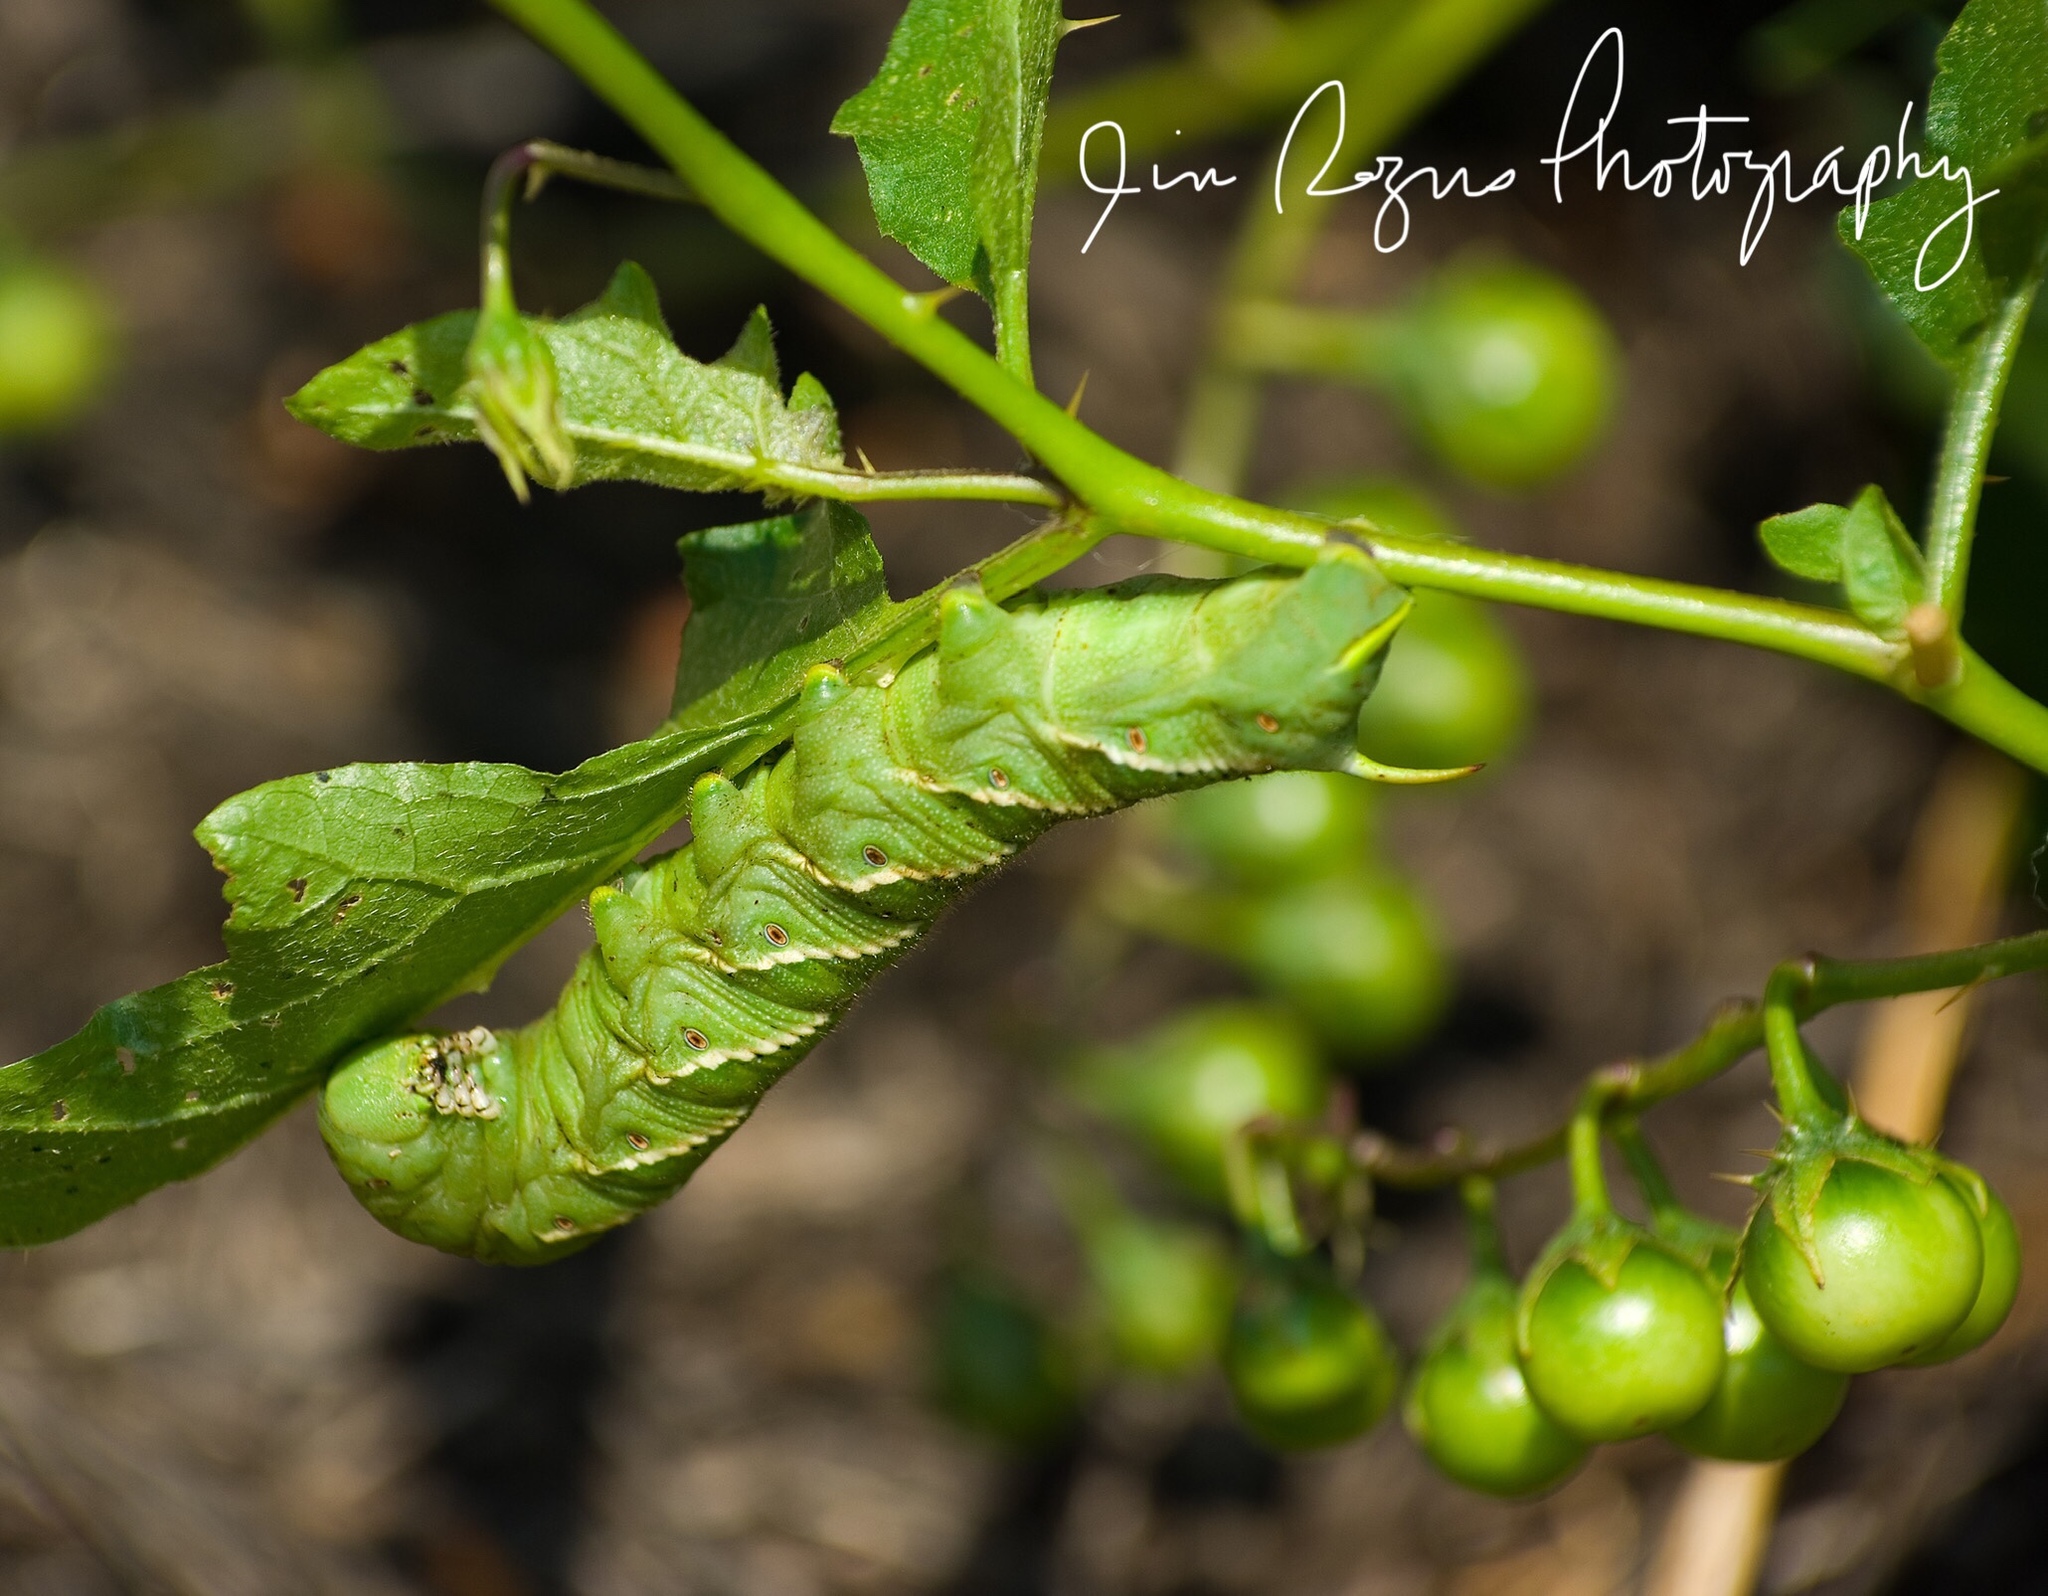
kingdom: Animalia
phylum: Arthropoda
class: Insecta
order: Lepidoptera
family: Sphingidae
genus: Manduca
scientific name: Manduca sexta
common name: Carolina sphinx
